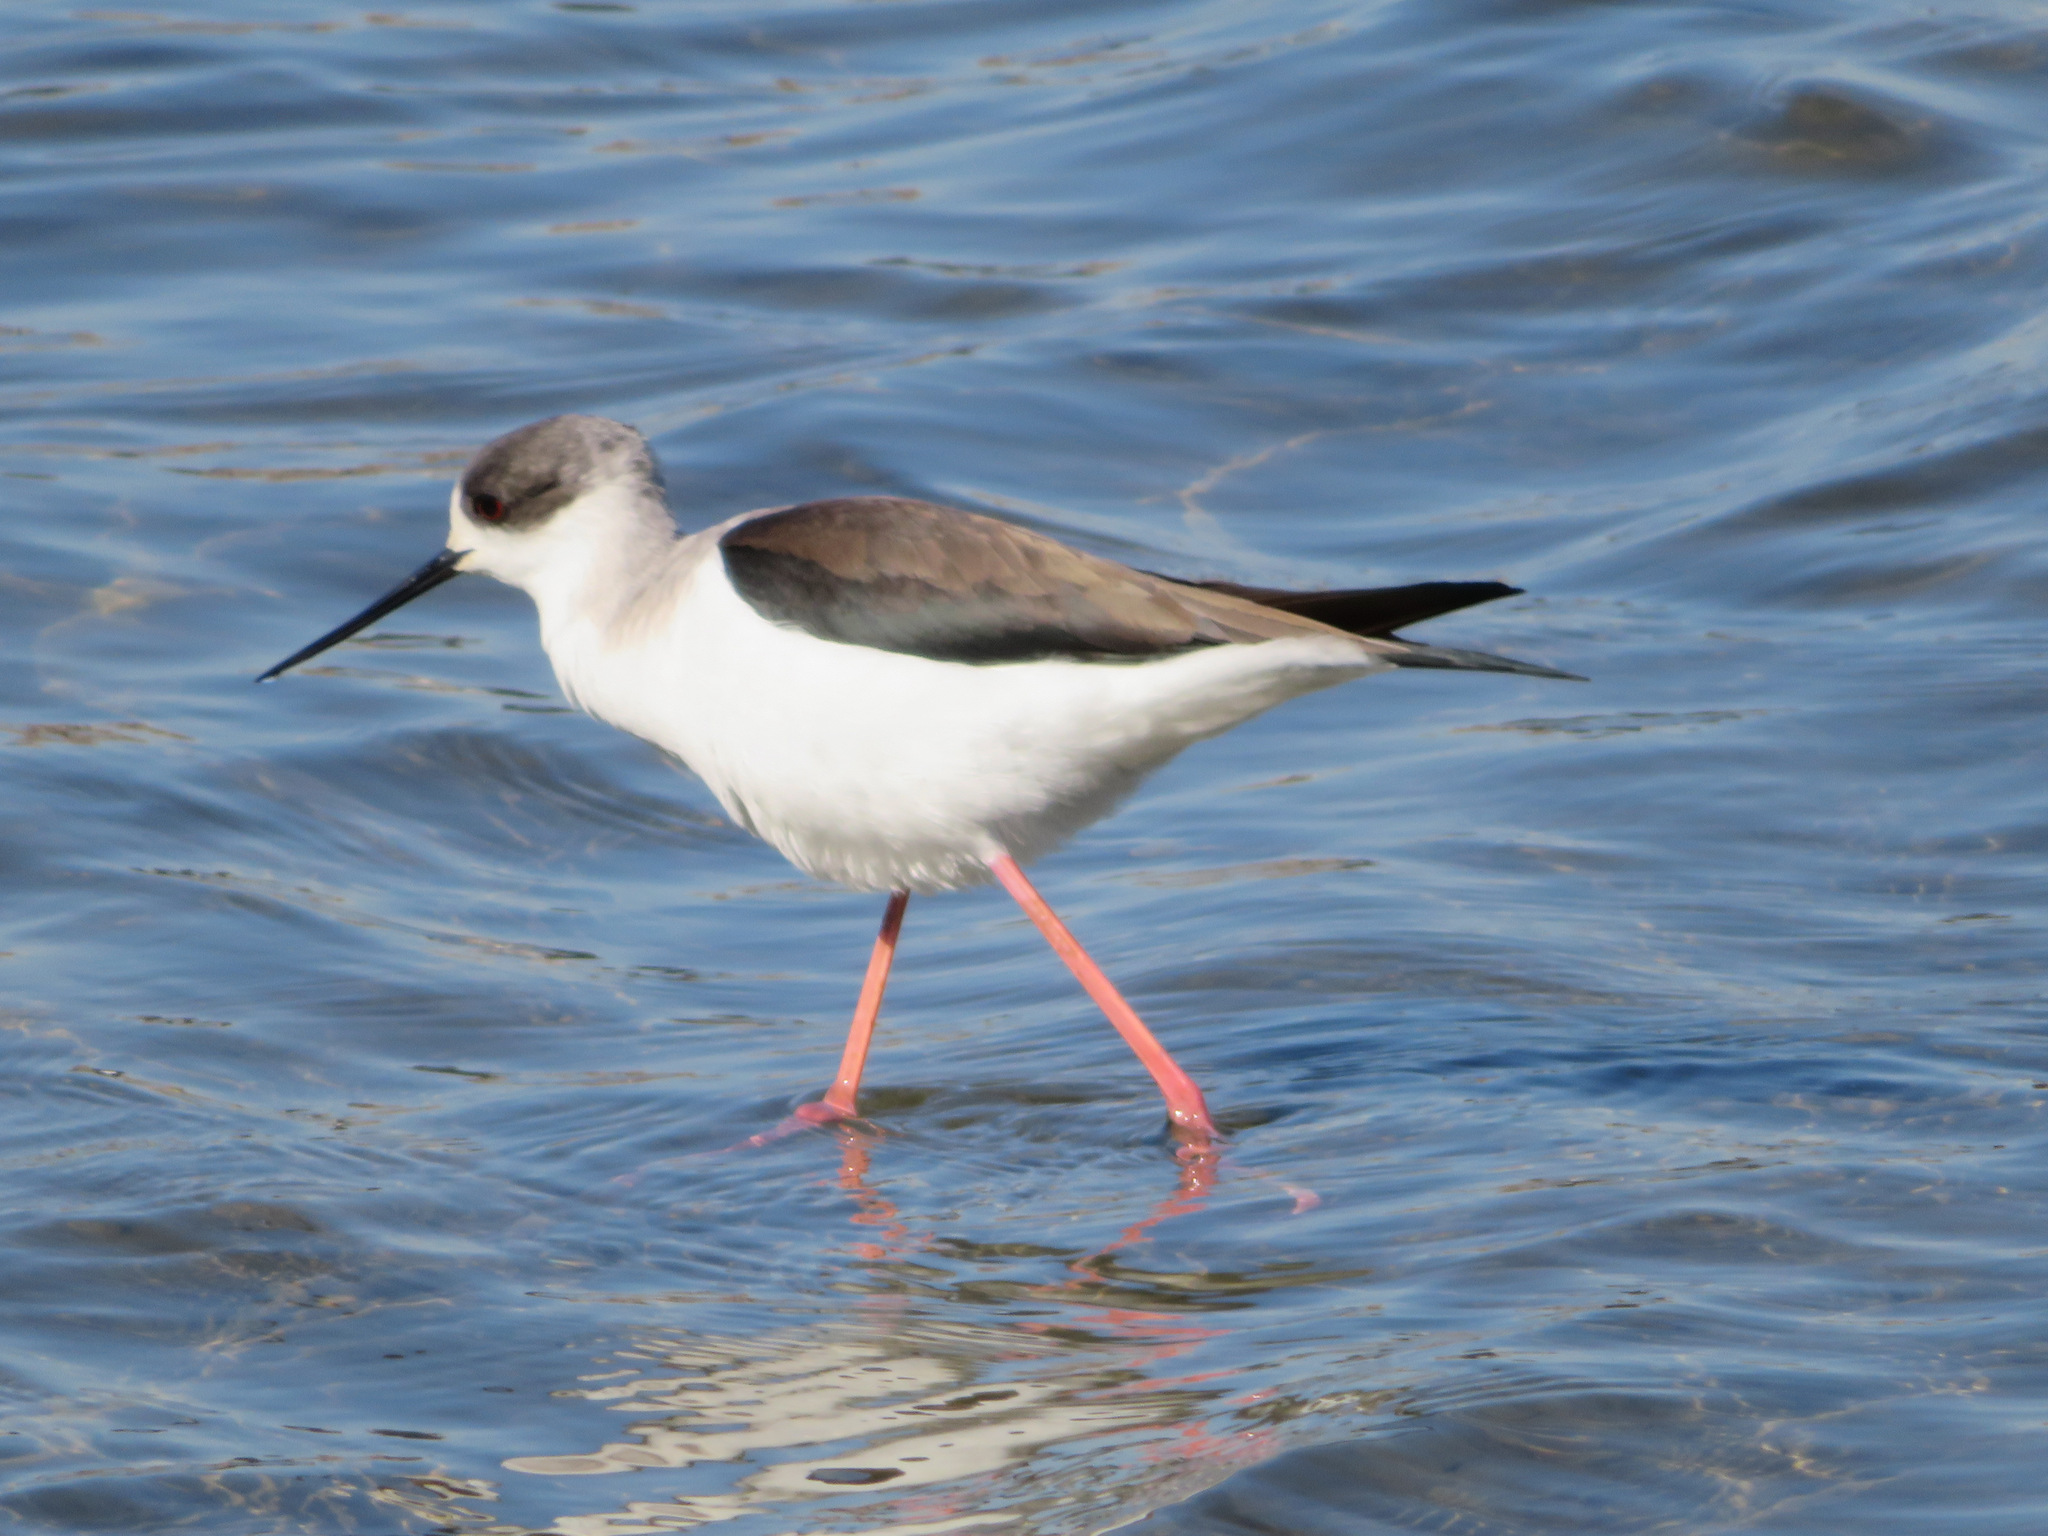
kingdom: Animalia
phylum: Chordata
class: Aves
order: Charadriiformes
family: Recurvirostridae
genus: Himantopus
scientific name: Himantopus himantopus
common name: Black-winged stilt
